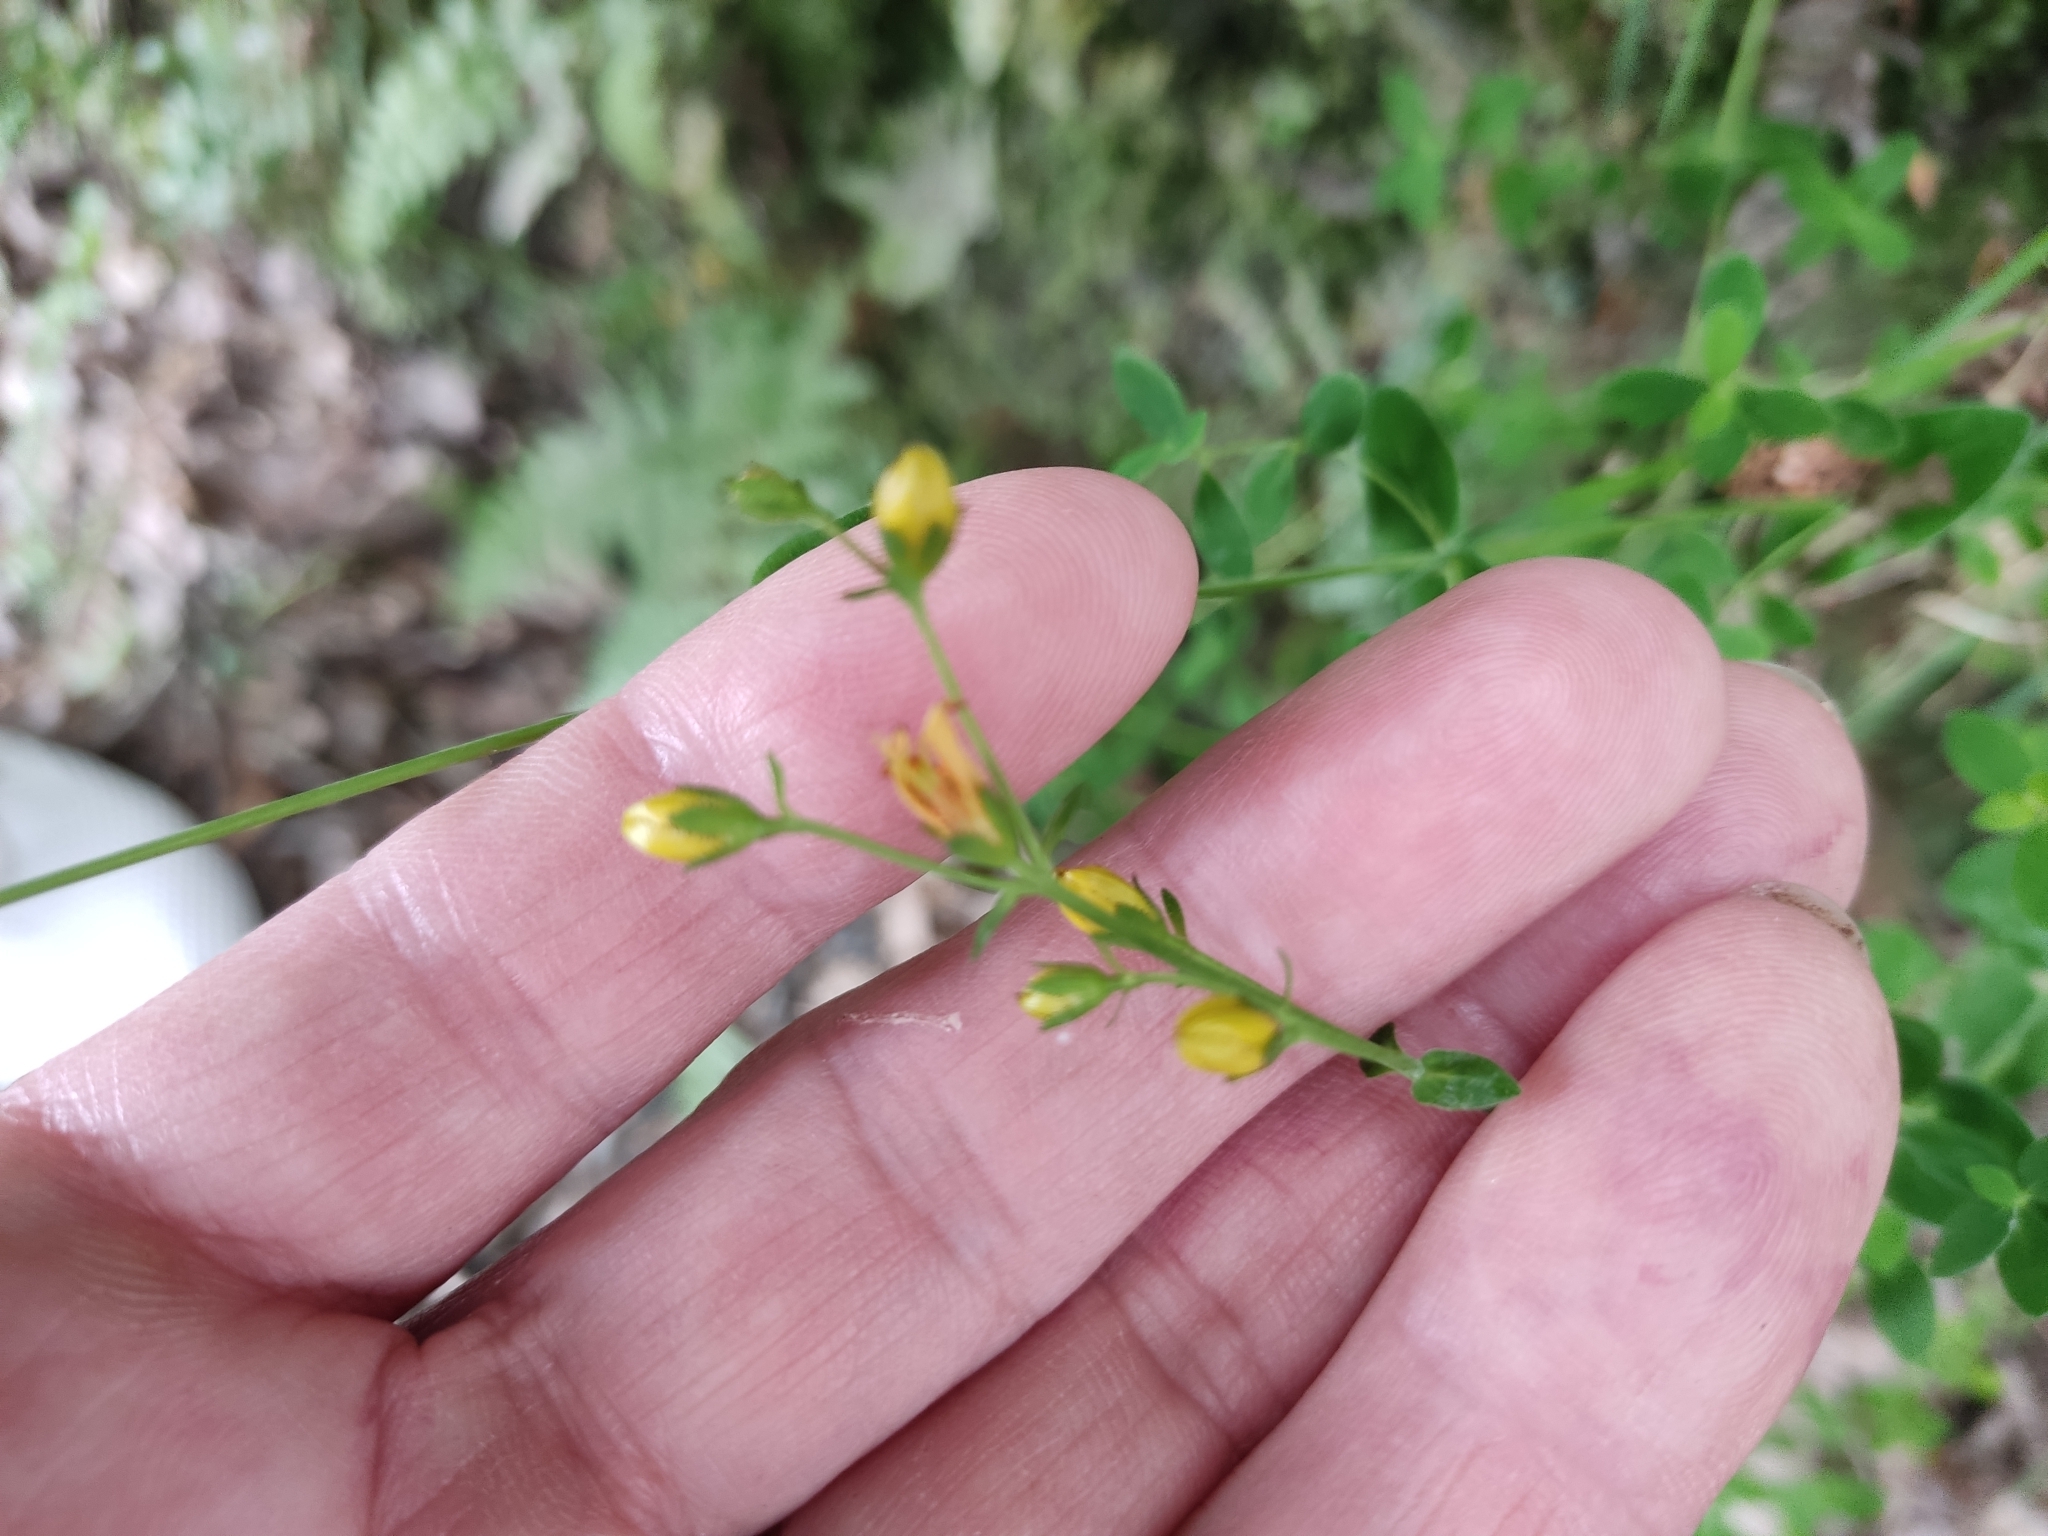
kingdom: Plantae
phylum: Tracheophyta
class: Magnoliopsida
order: Malpighiales
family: Hypericaceae
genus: Hypericum
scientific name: Hypericum pulchrum
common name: Slender st. john's-wort
